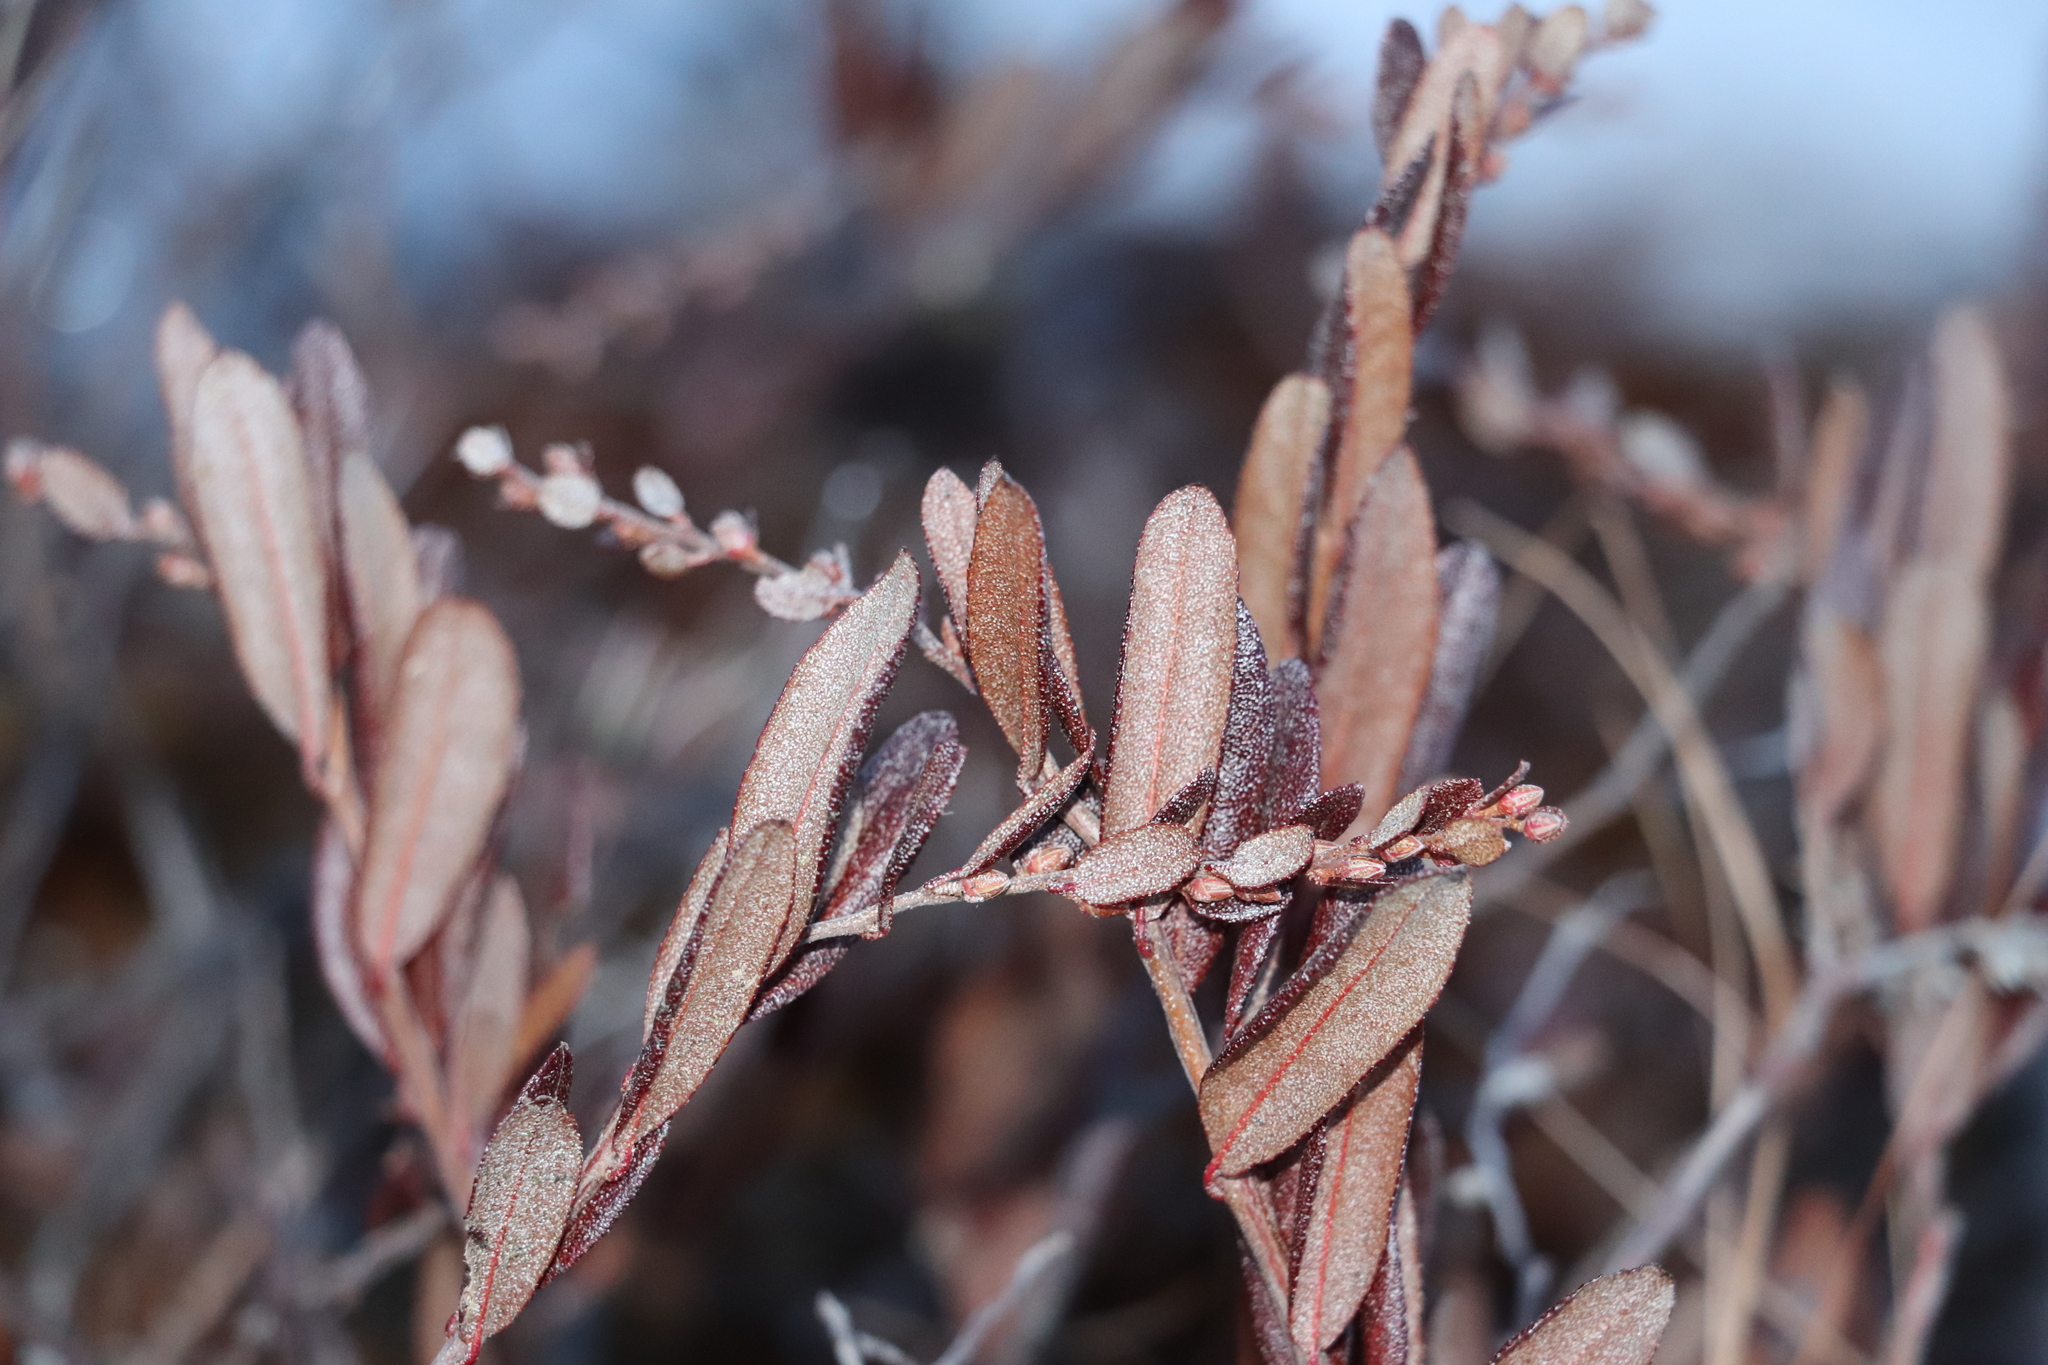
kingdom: Plantae
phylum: Tracheophyta
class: Magnoliopsida
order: Ericales
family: Ericaceae
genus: Chamaedaphne
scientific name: Chamaedaphne calyculata
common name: Leatherleaf
